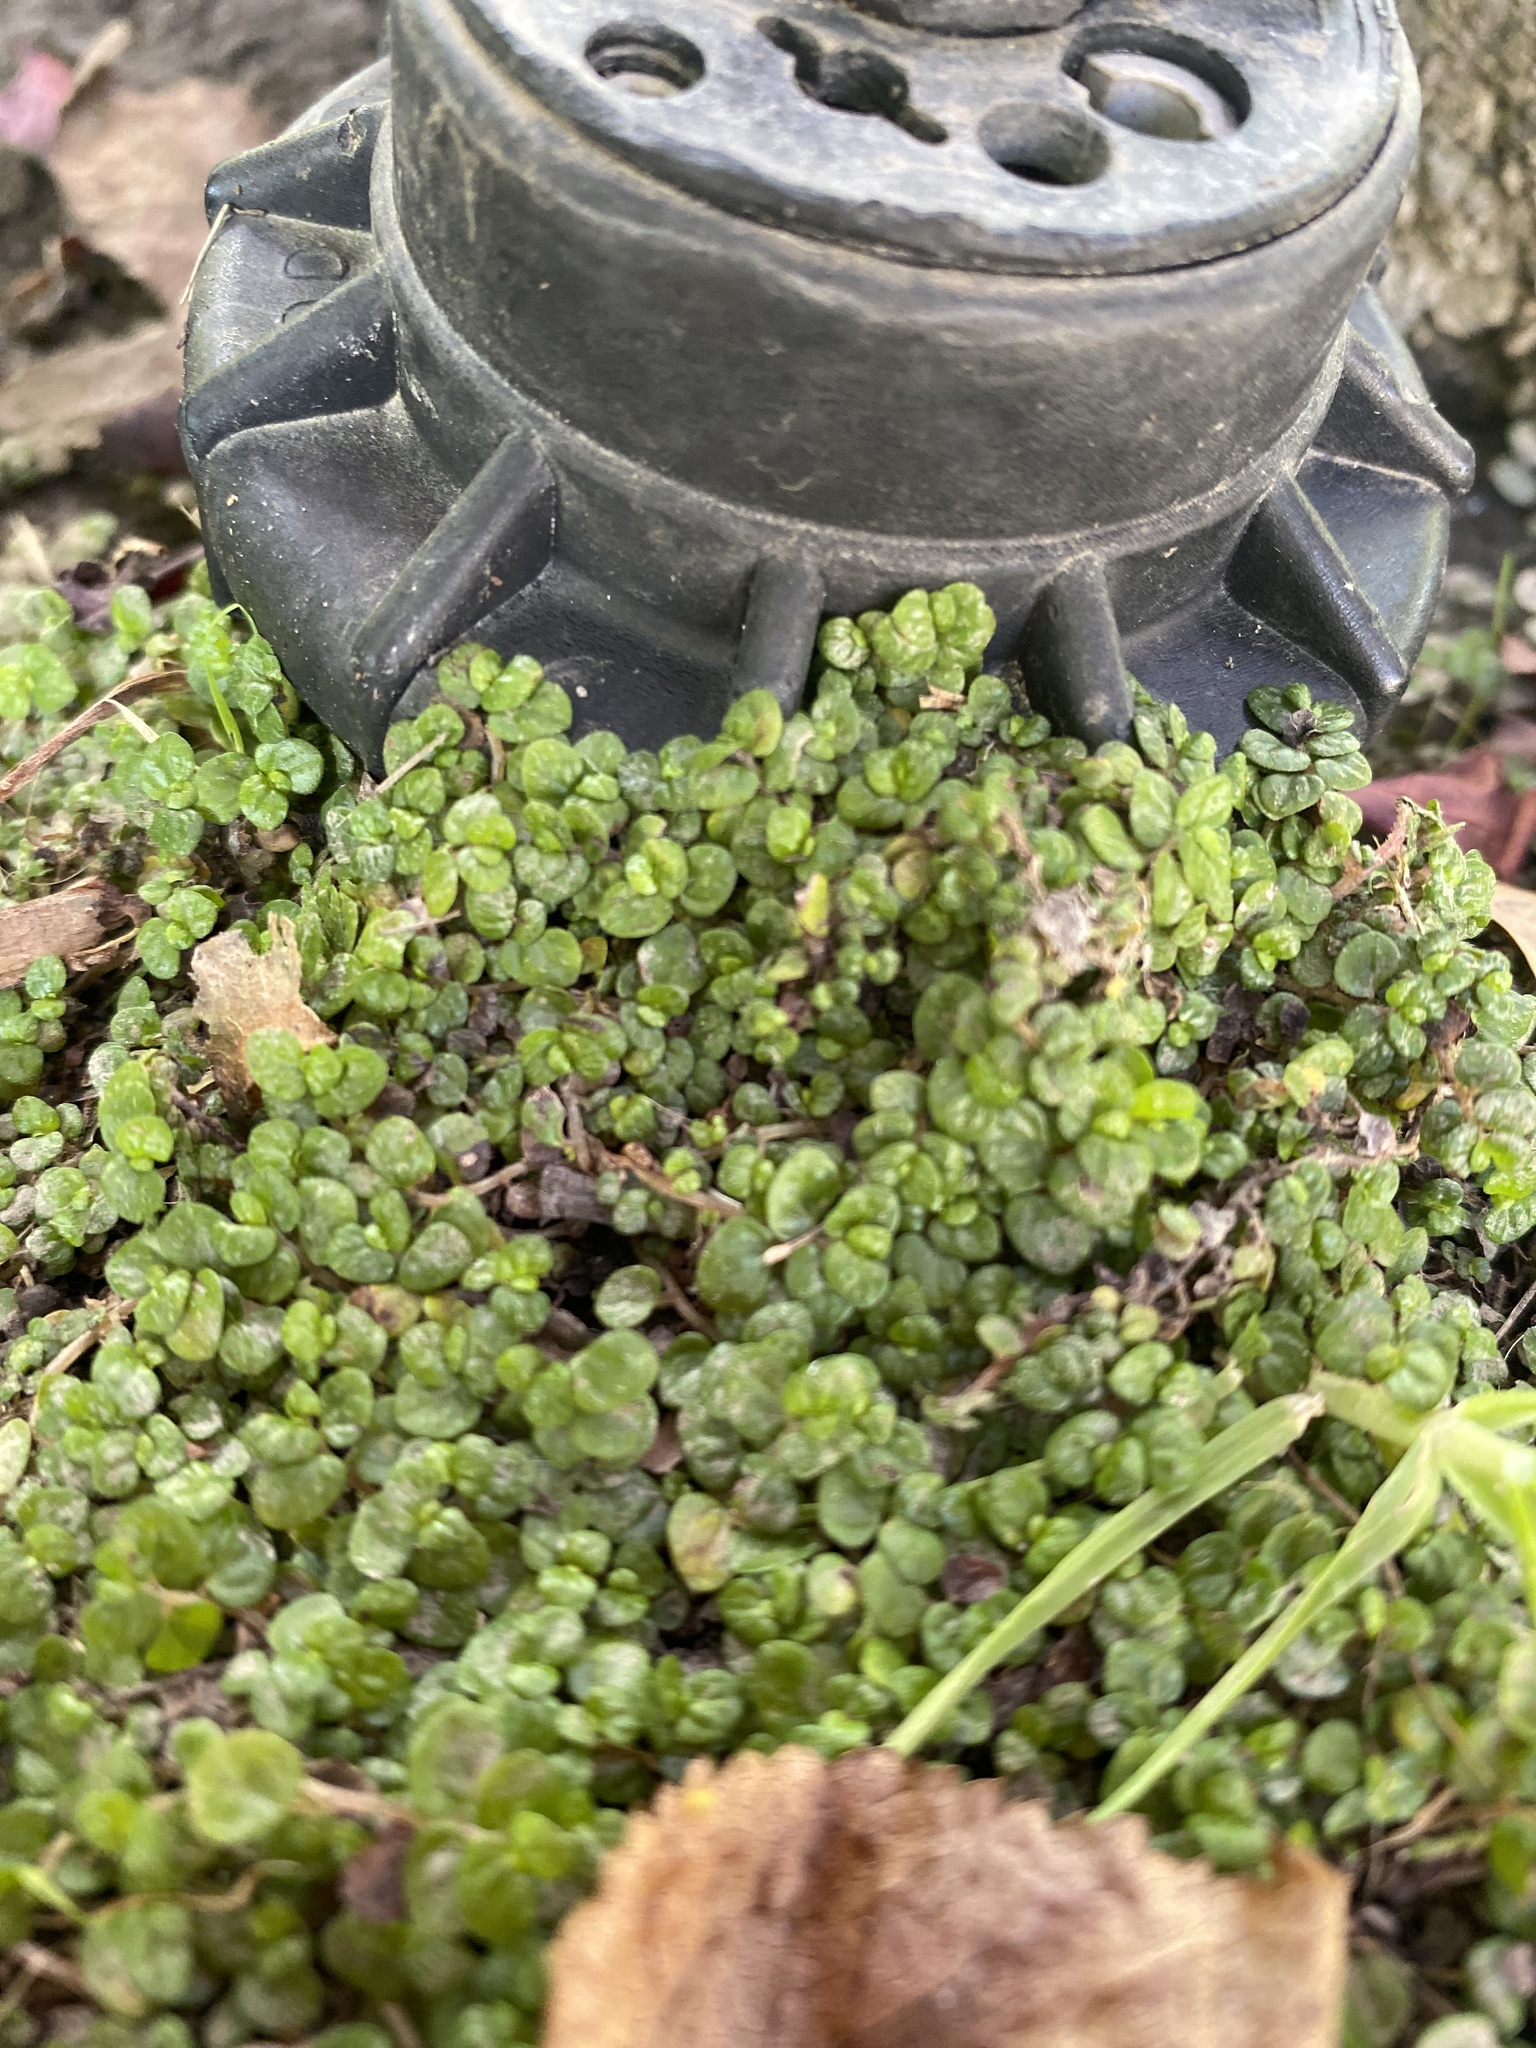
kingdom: Plantae
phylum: Tracheophyta
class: Magnoliopsida
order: Rosales
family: Urticaceae
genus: Soleirolia
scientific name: Soleirolia soleirolii
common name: Mind-your-own-business
